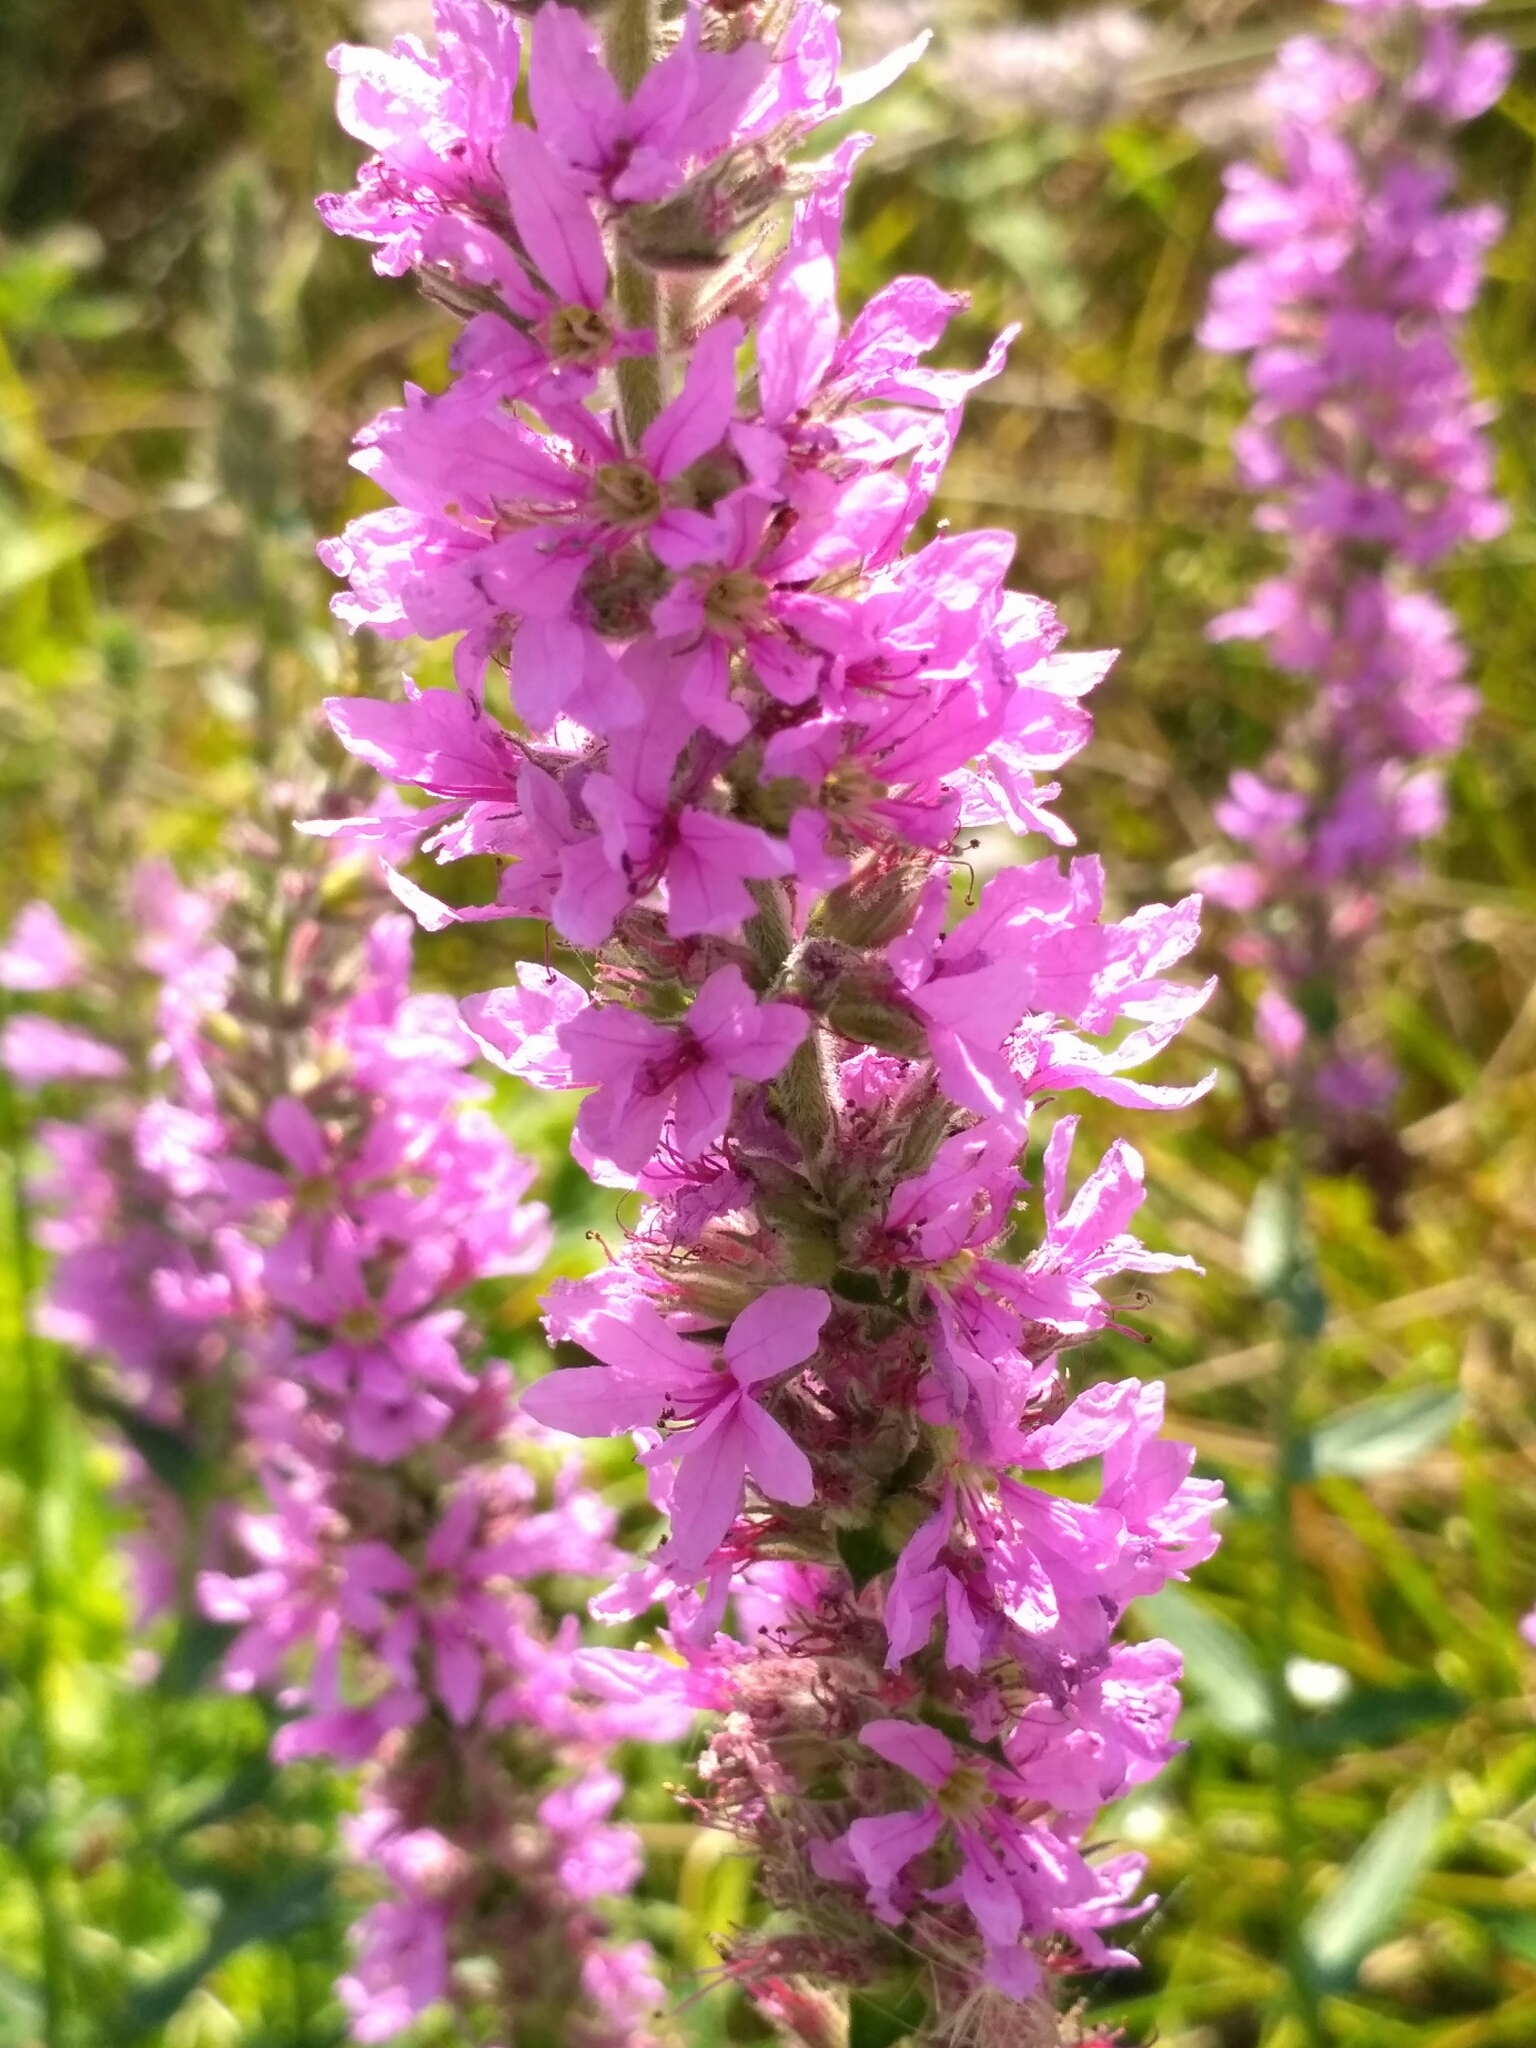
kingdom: Plantae
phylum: Tracheophyta
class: Magnoliopsida
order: Myrtales
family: Lythraceae
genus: Lythrum
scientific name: Lythrum salicaria
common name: Purple loosestrife
